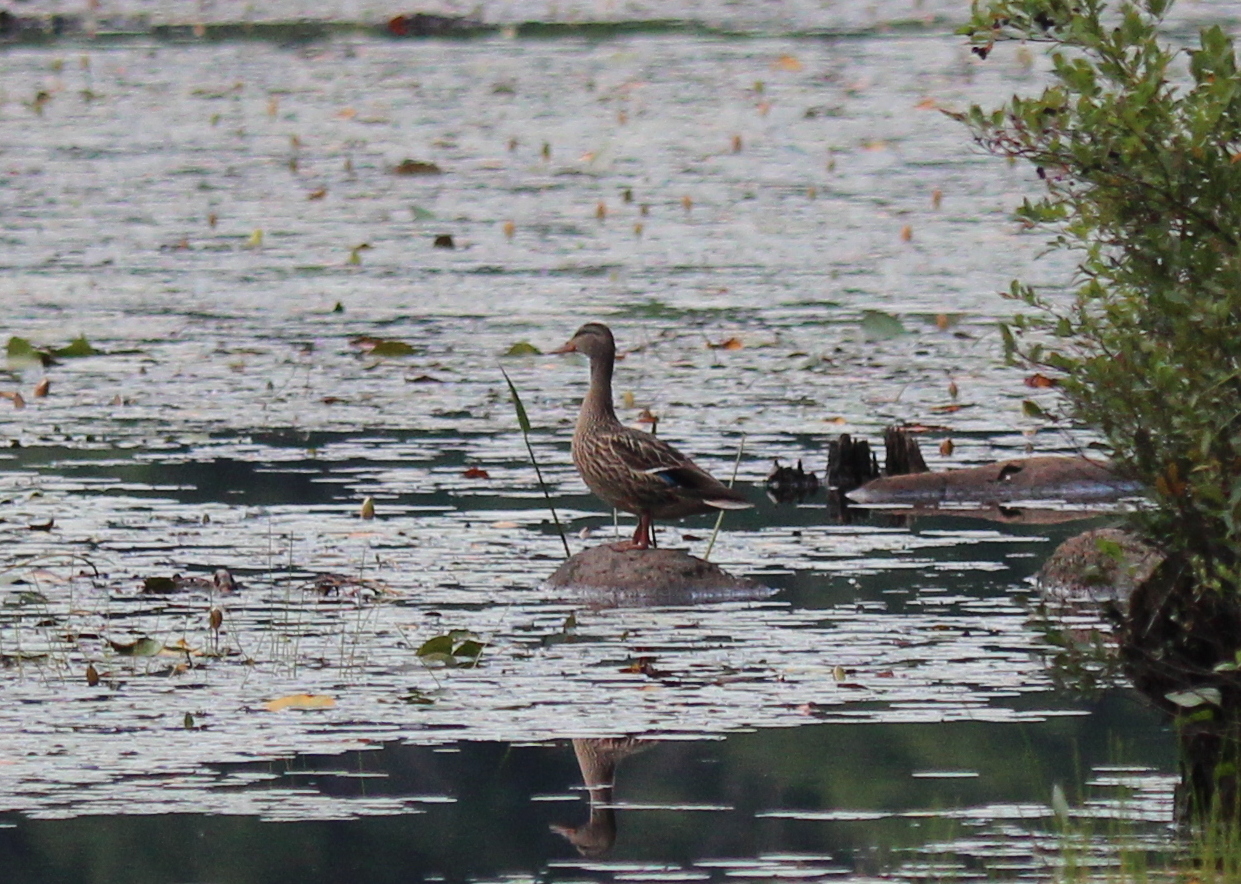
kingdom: Animalia
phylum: Chordata
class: Aves
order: Anseriformes
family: Anatidae
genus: Anas
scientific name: Anas platyrhynchos
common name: Mallard
